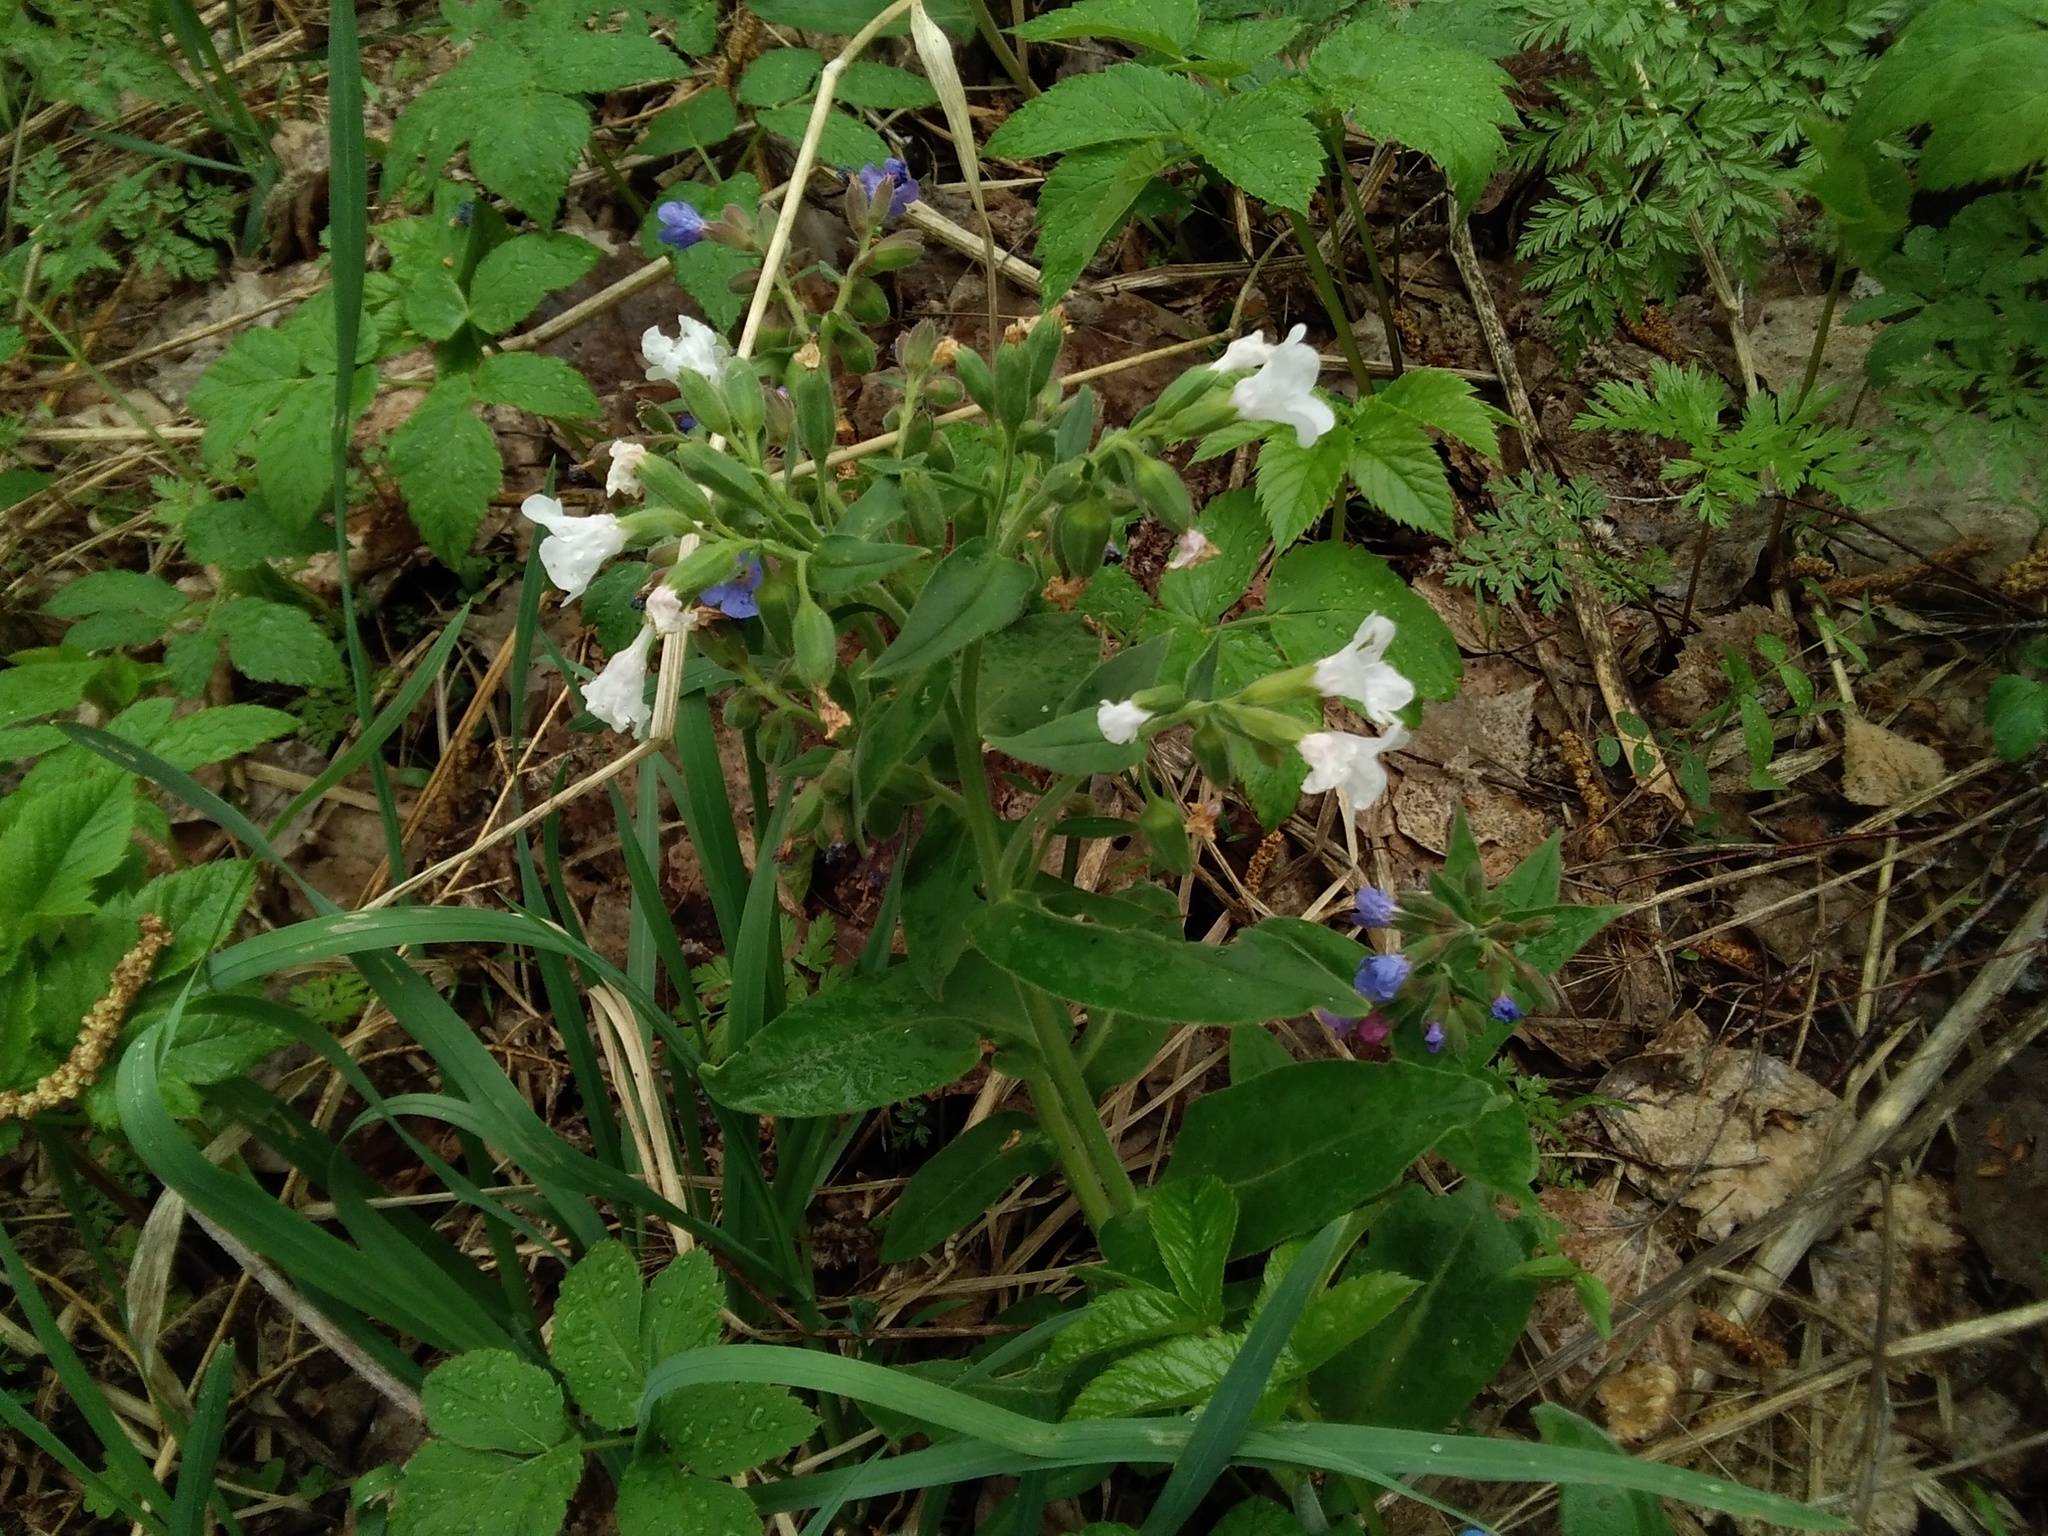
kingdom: Plantae
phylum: Tracheophyta
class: Magnoliopsida
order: Boraginales
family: Boraginaceae
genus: Pulmonaria
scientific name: Pulmonaria mollis
